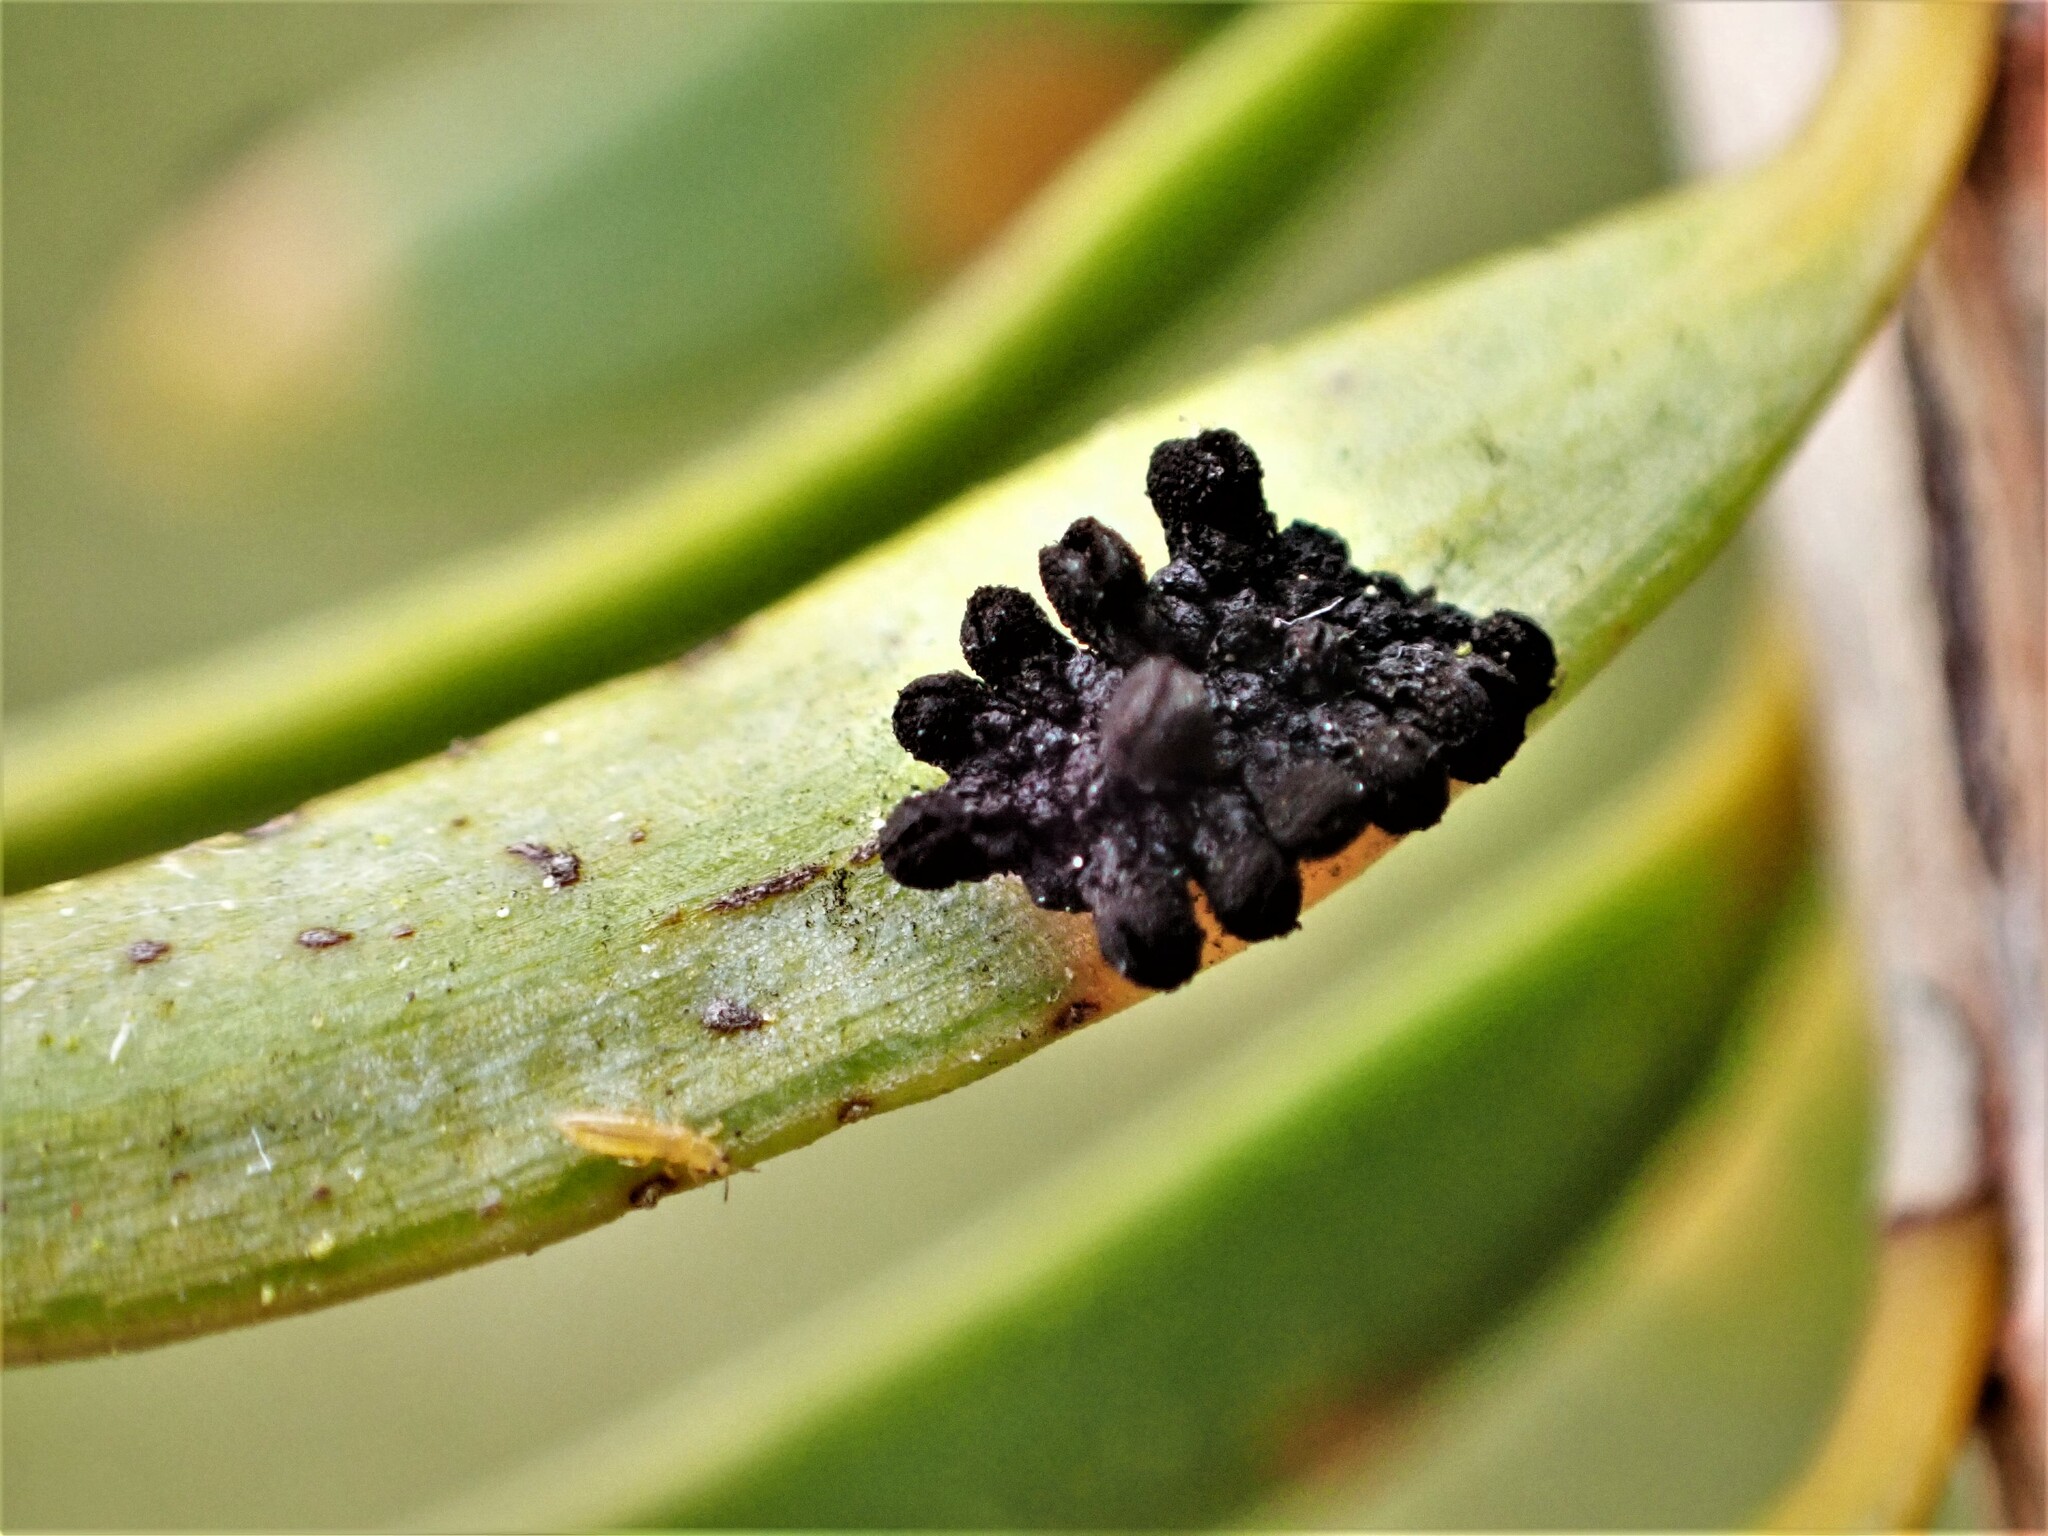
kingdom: Fungi
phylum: Ascomycota
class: Eurotiomycetes
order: Coryneliales
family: Coryneliaceae
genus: Corynelia
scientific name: Corynelia tropica
